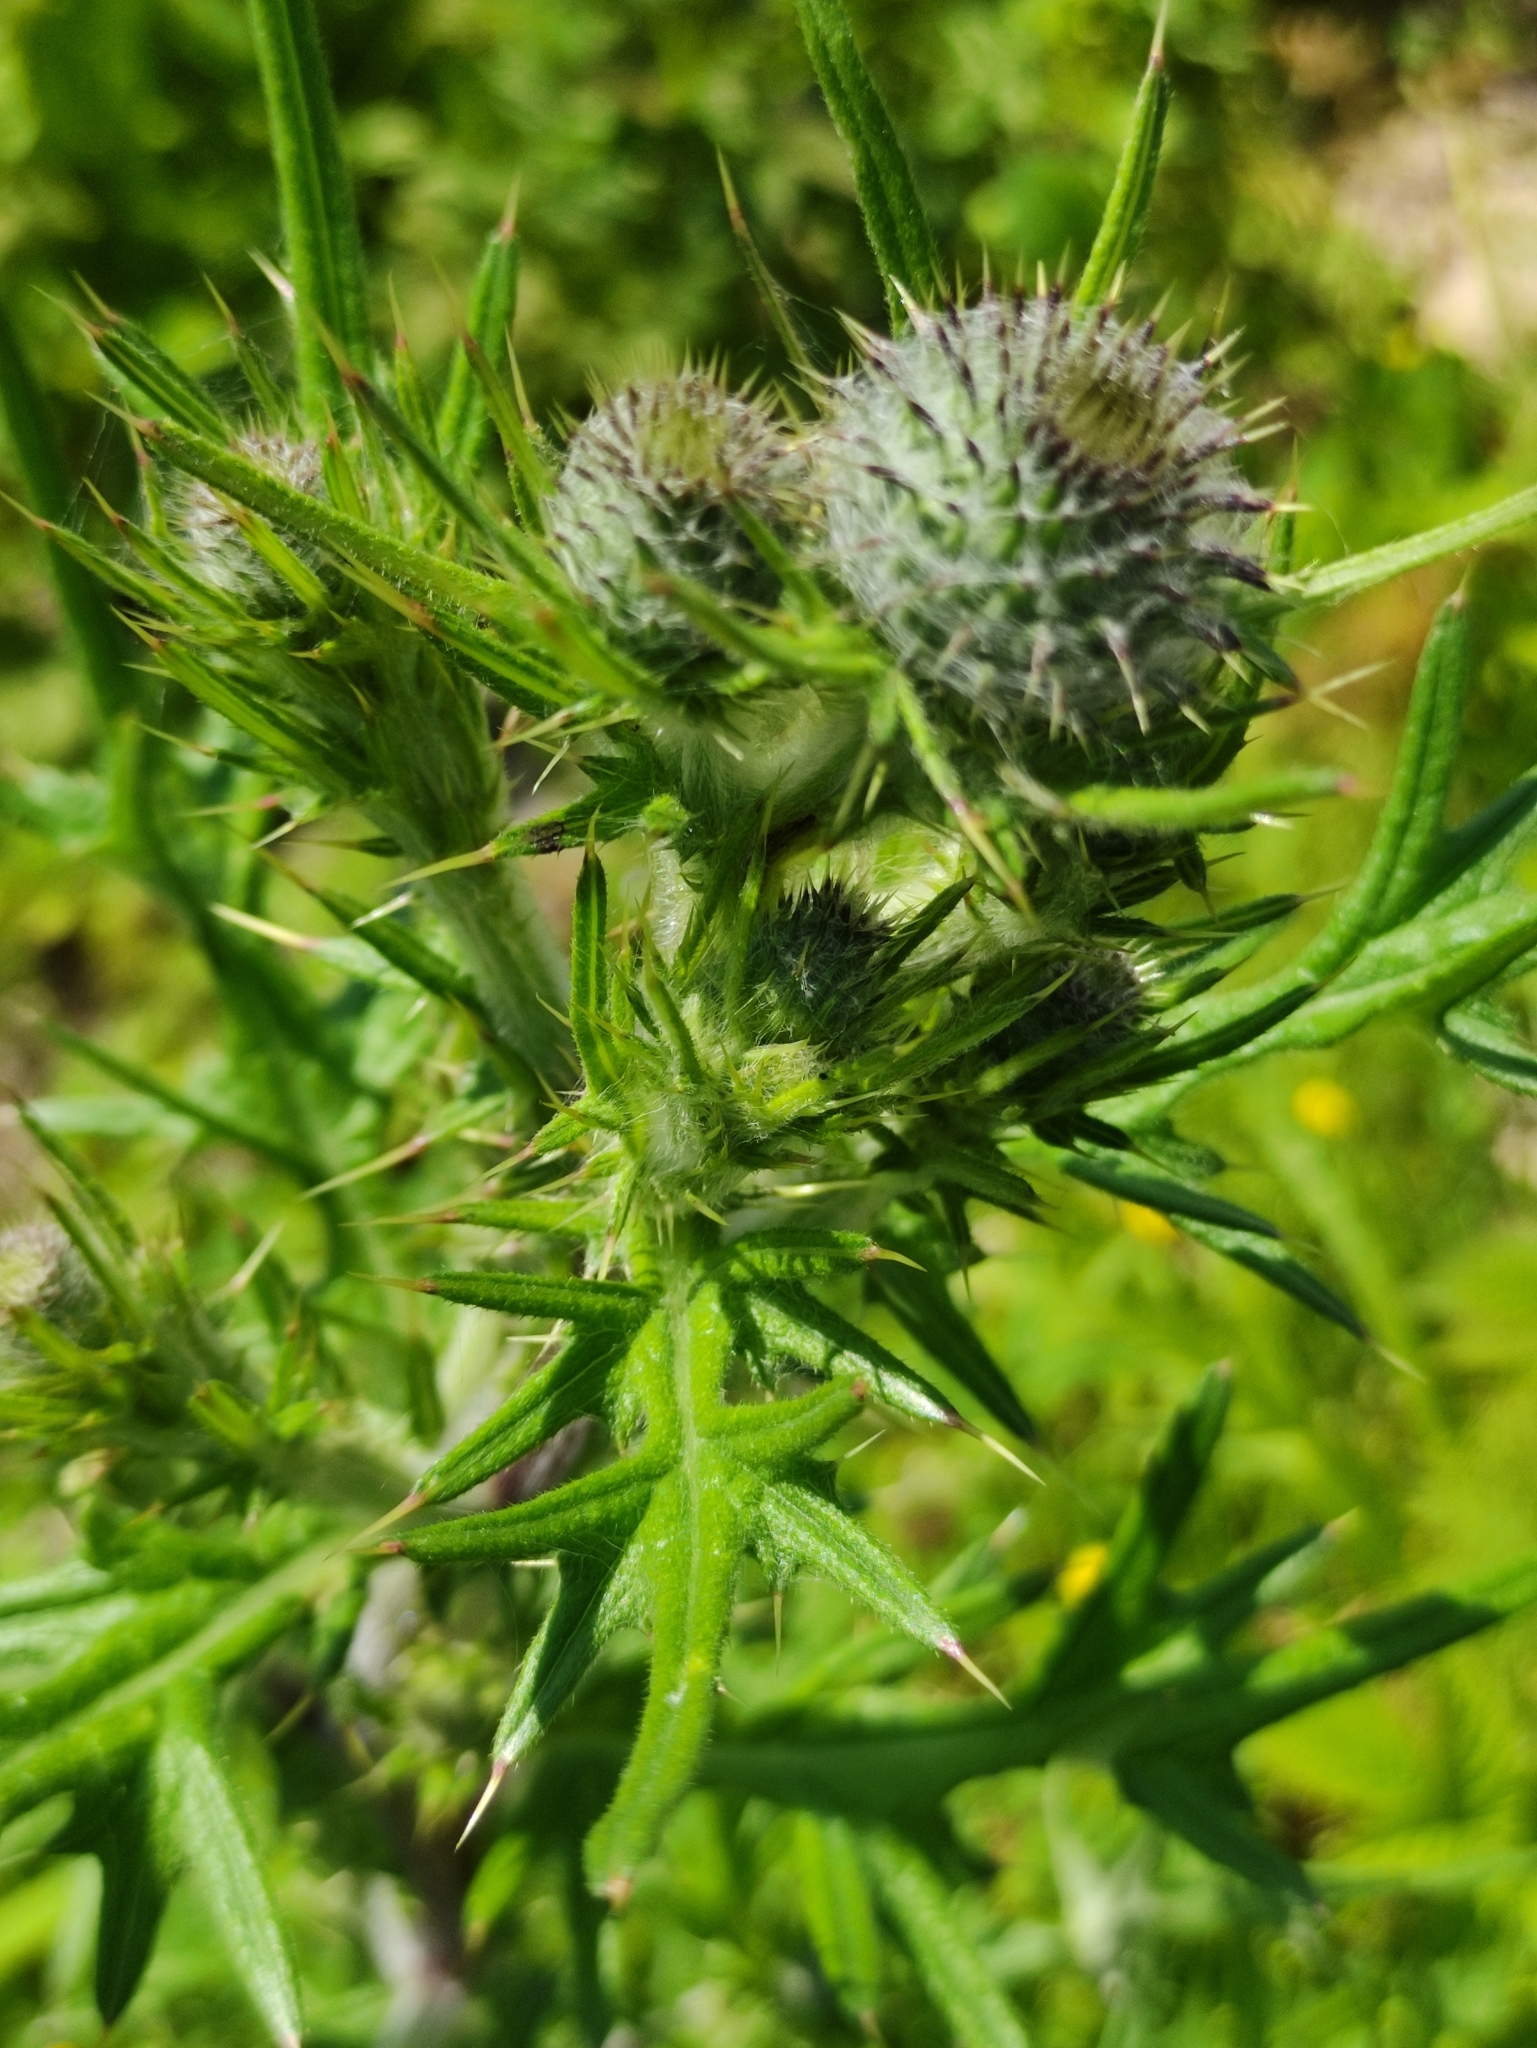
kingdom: Plantae
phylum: Tracheophyta
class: Magnoliopsida
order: Asterales
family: Asteraceae
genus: Cirsium
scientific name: Cirsium vulgare
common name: Bull thistle
